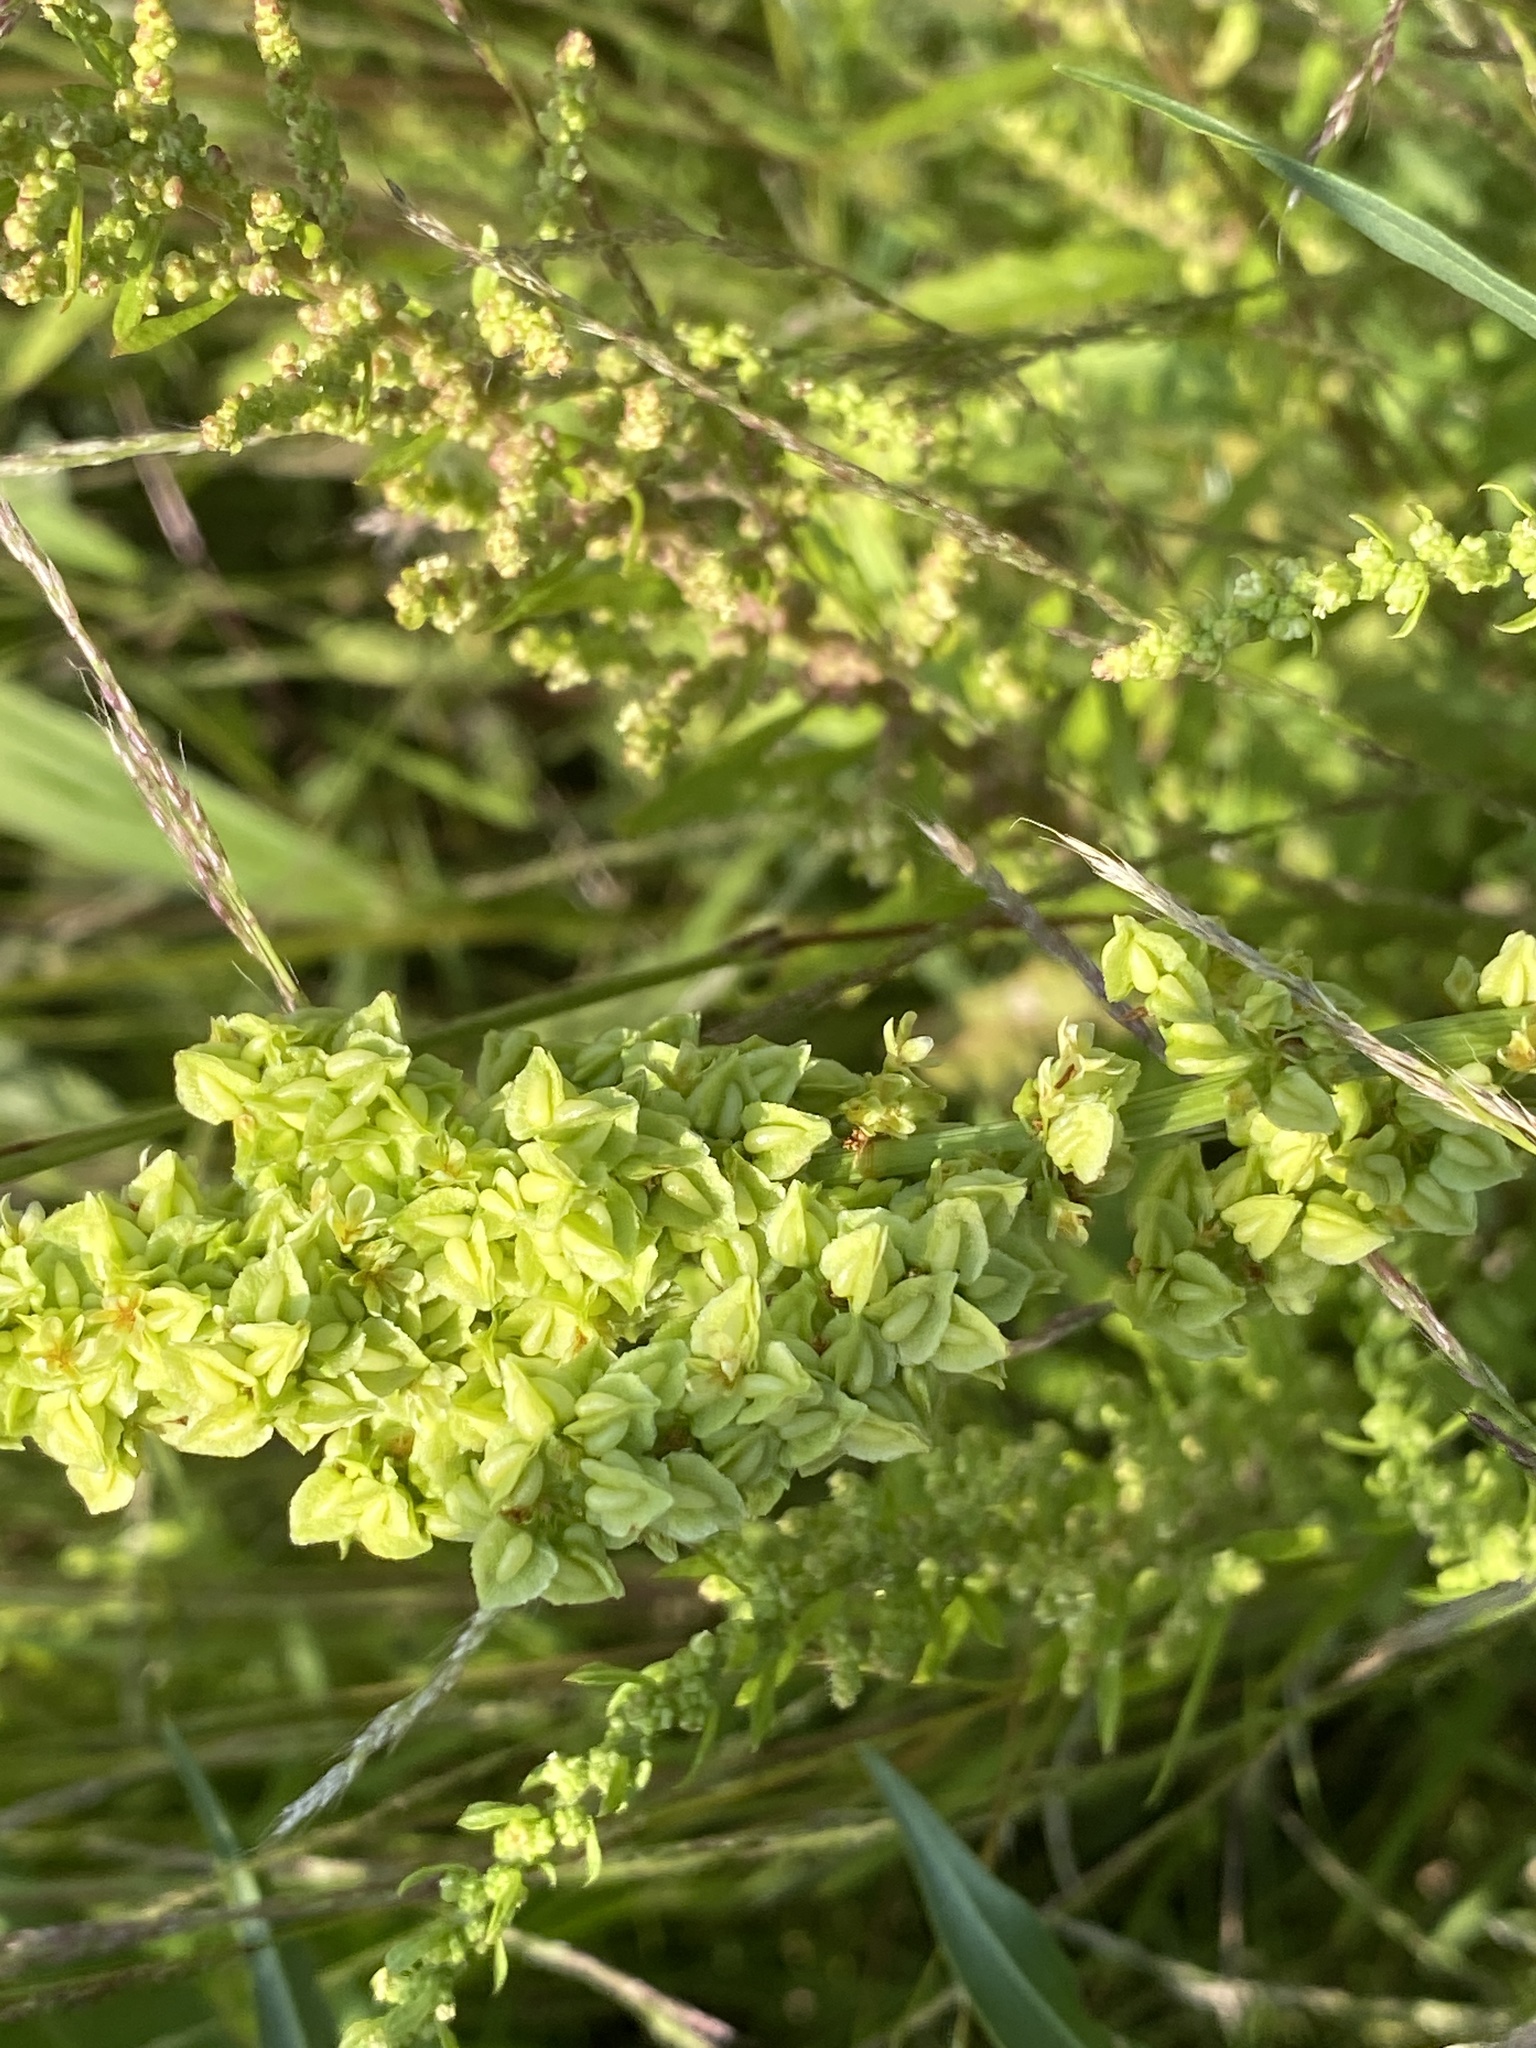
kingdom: Plantae
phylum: Tracheophyta
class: Magnoliopsida
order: Caryophyllales
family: Polygonaceae
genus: Rumex
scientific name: Rumex triangulivalvis
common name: Triangular-valve dock
